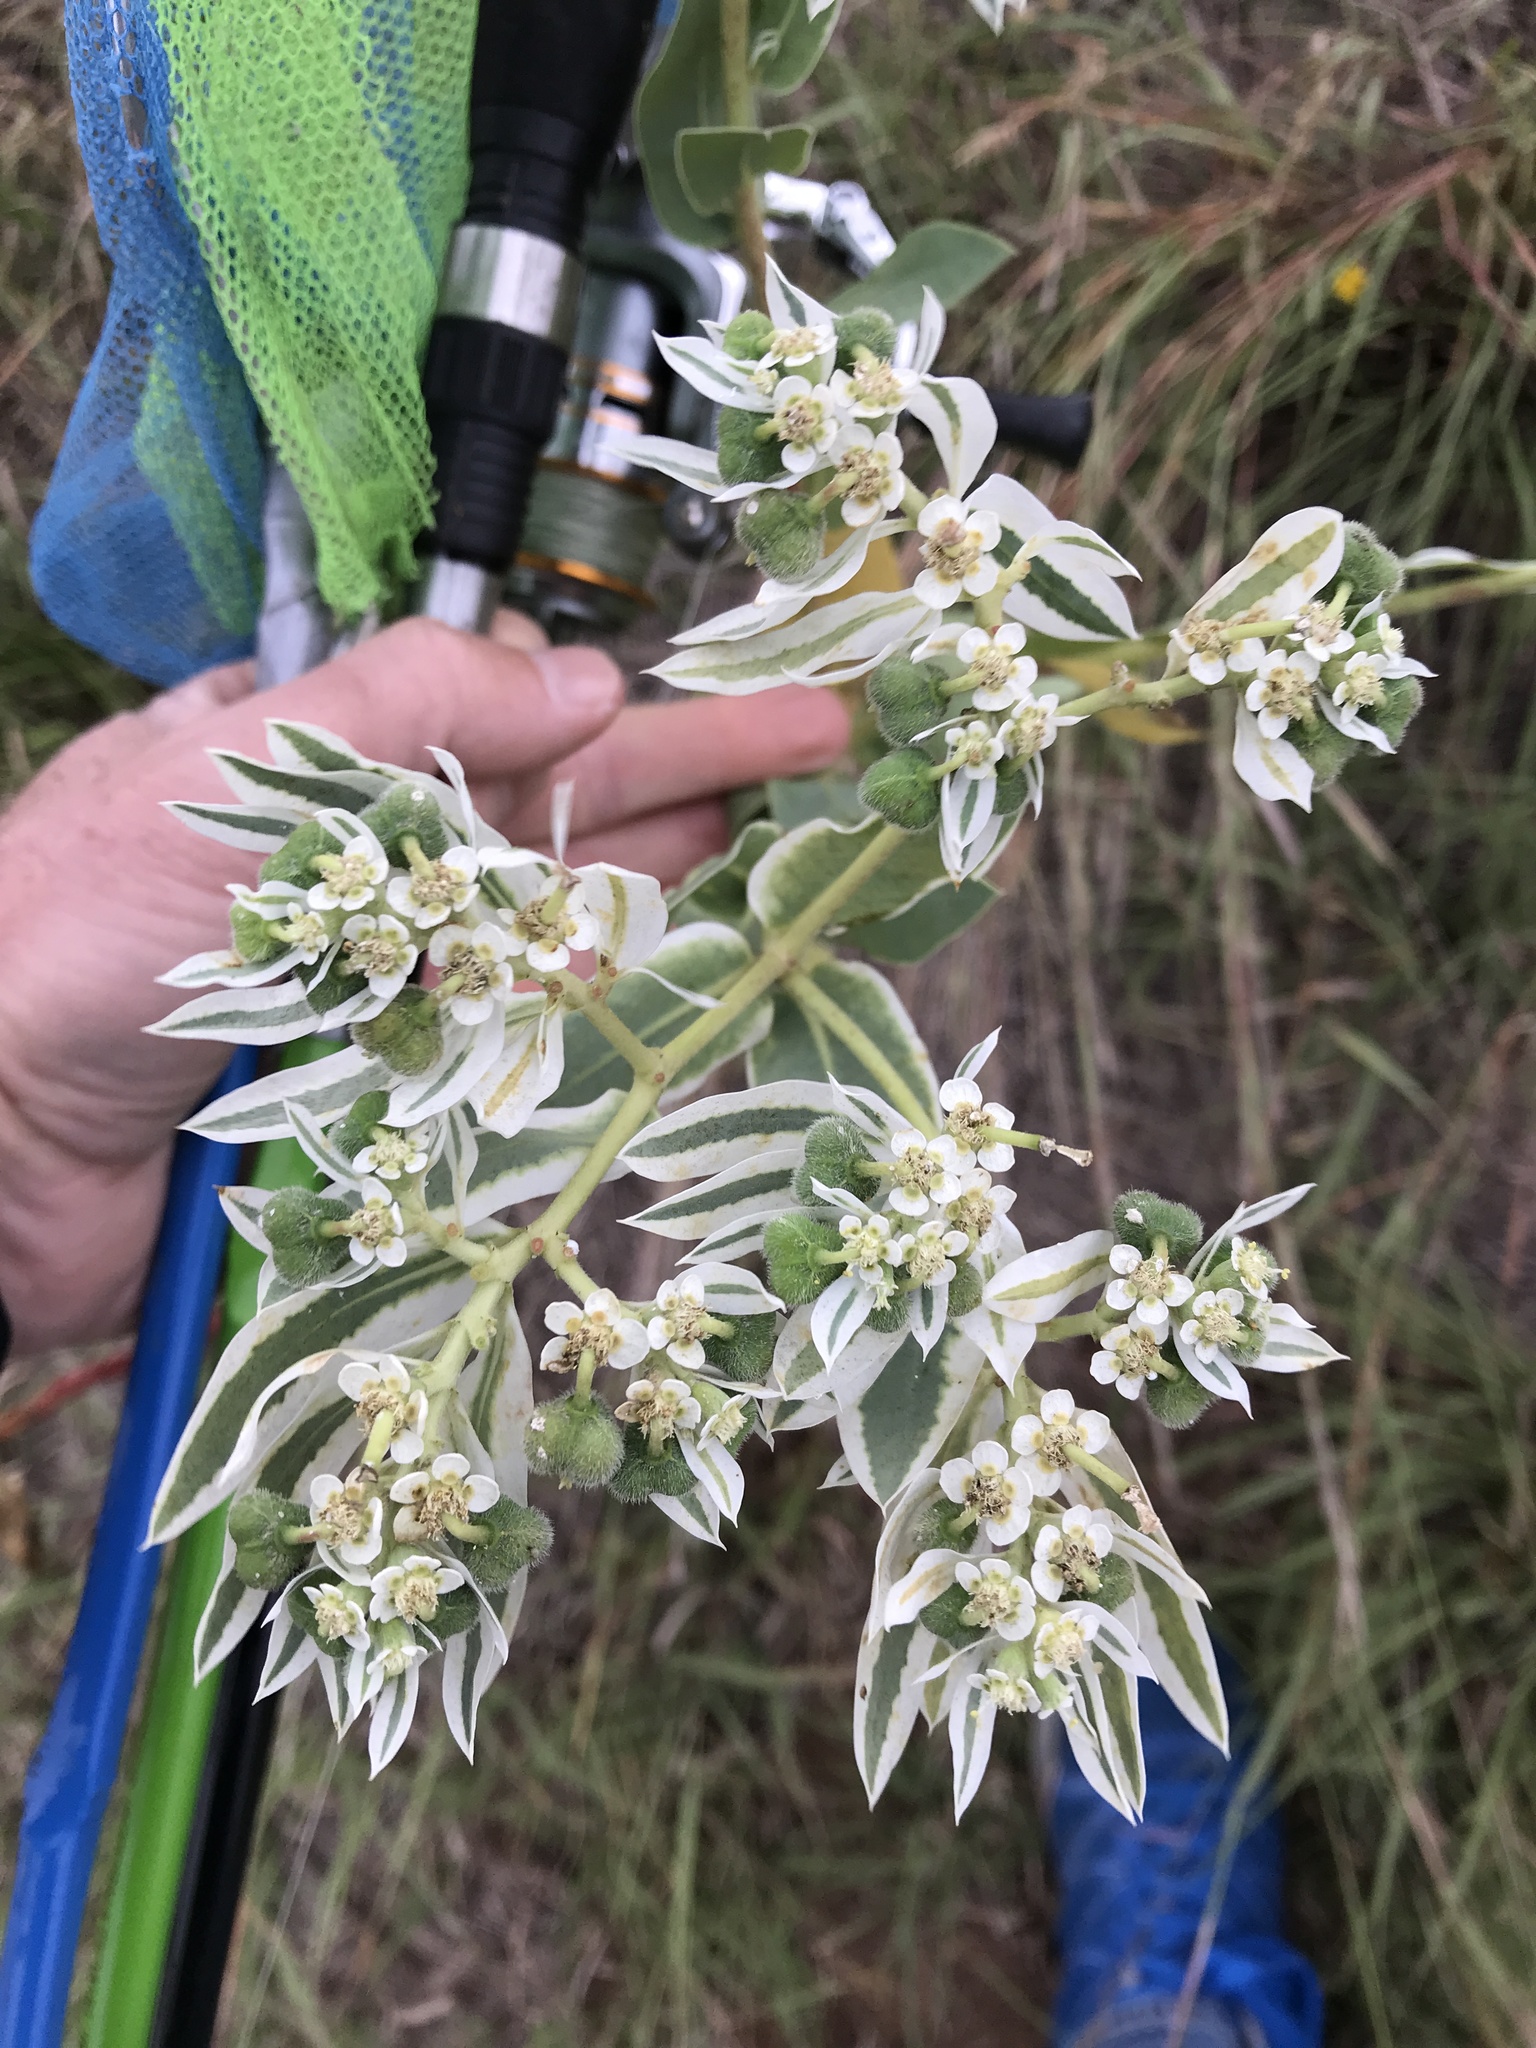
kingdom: Plantae
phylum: Tracheophyta
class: Magnoliopsida
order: Malpighiales
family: Euphorbiaceae
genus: Euphorbia
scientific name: Euphorbia marginata
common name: Ghostweed
